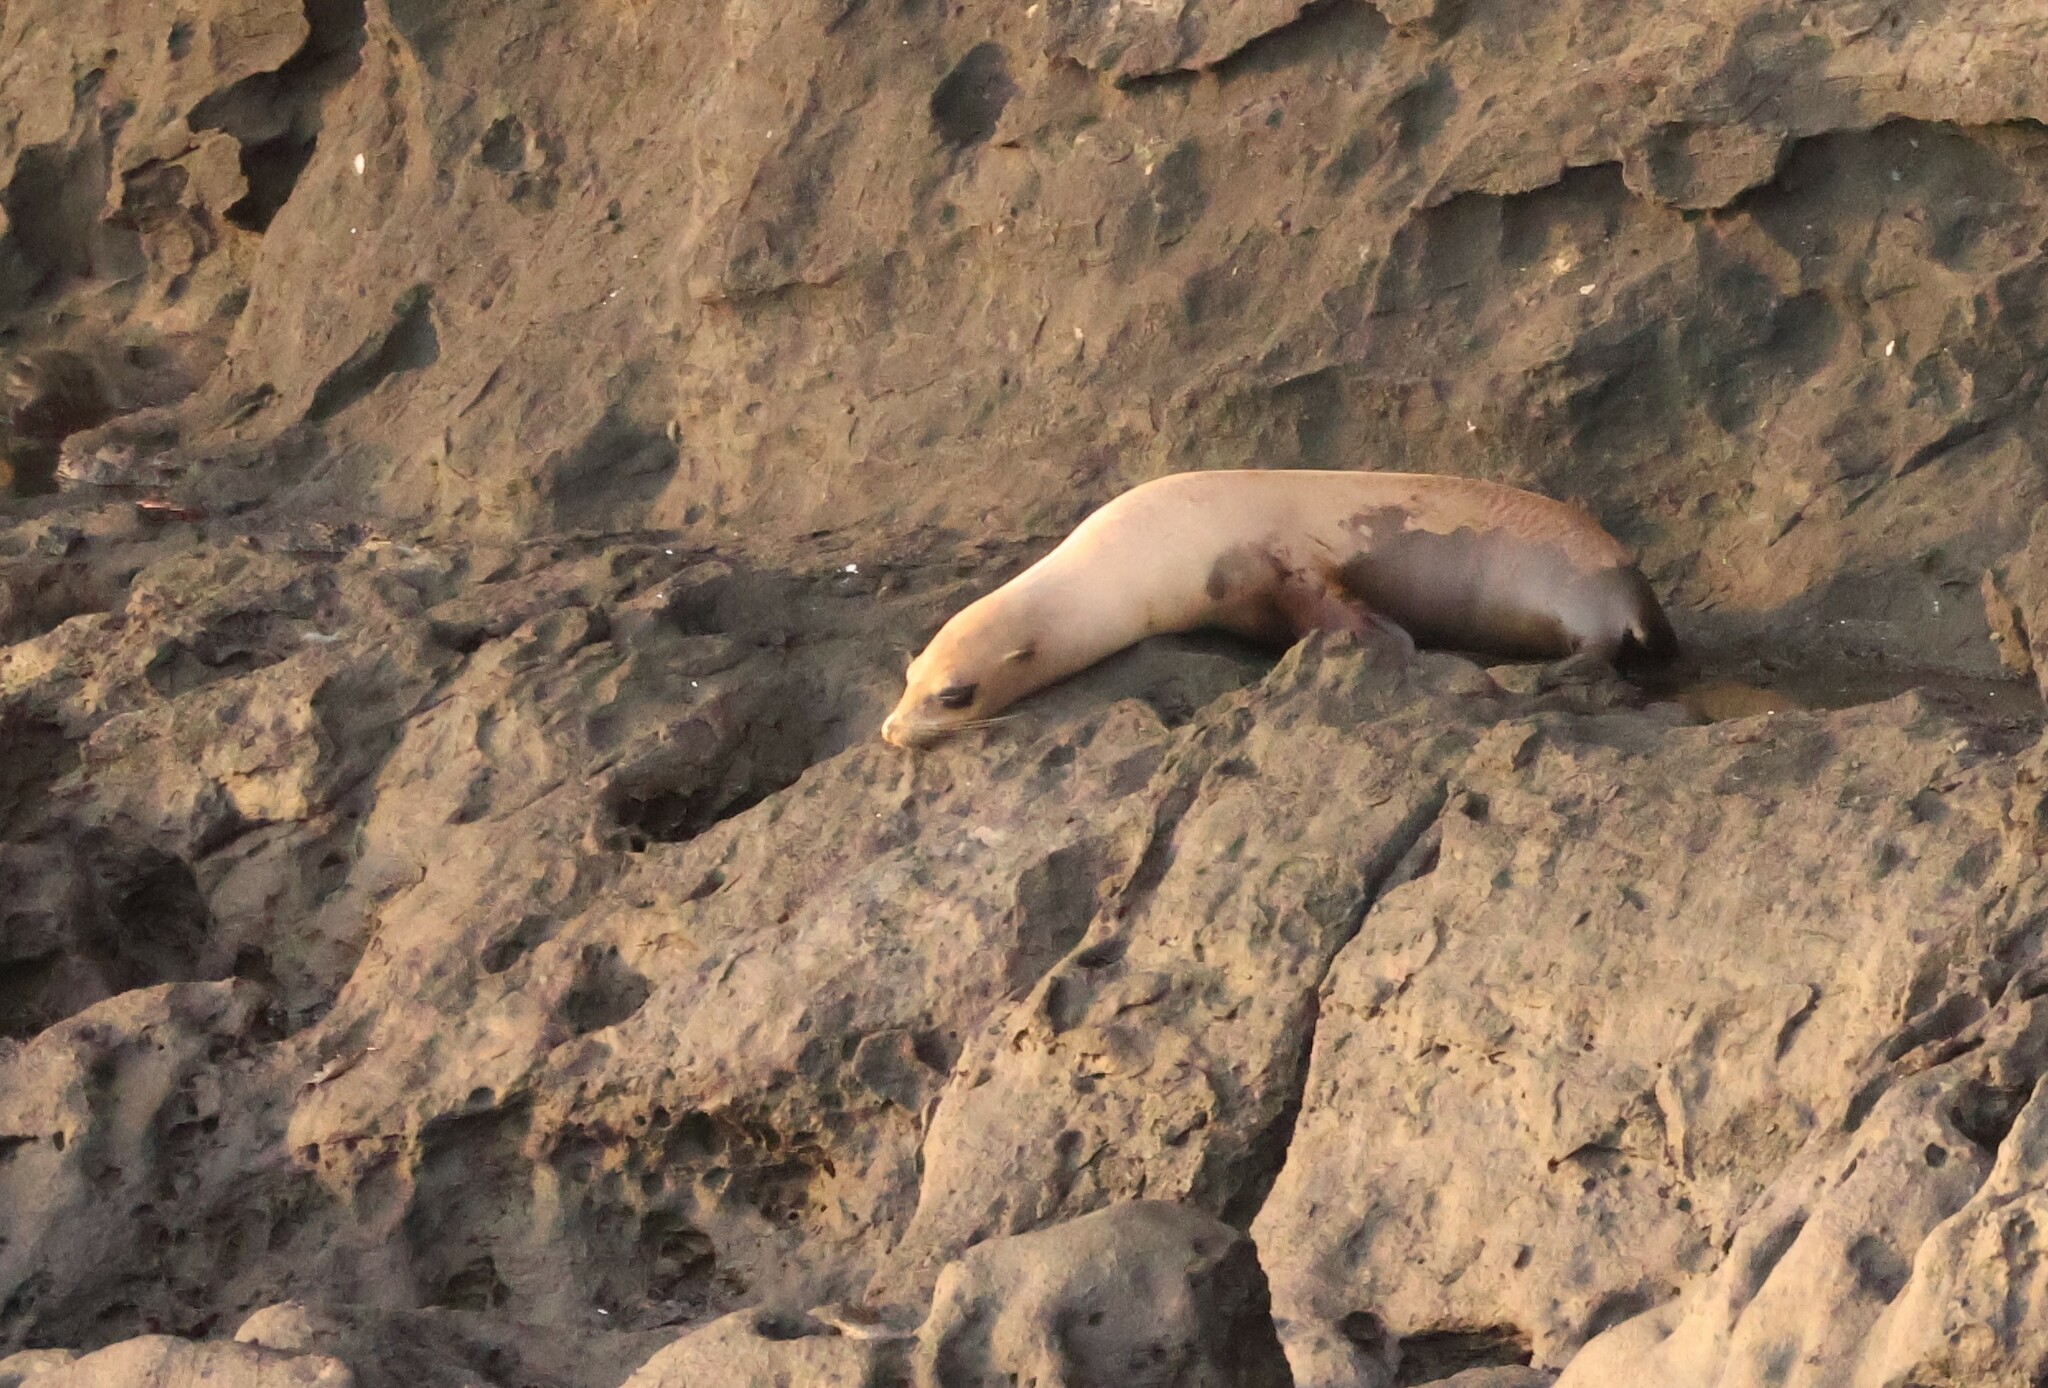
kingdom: Animalia
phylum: Chordata
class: Mammalia
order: Carnivora
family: Otariidae
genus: Zalophus
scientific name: Zalophus wollebaeki
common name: Galapagos sea lion
